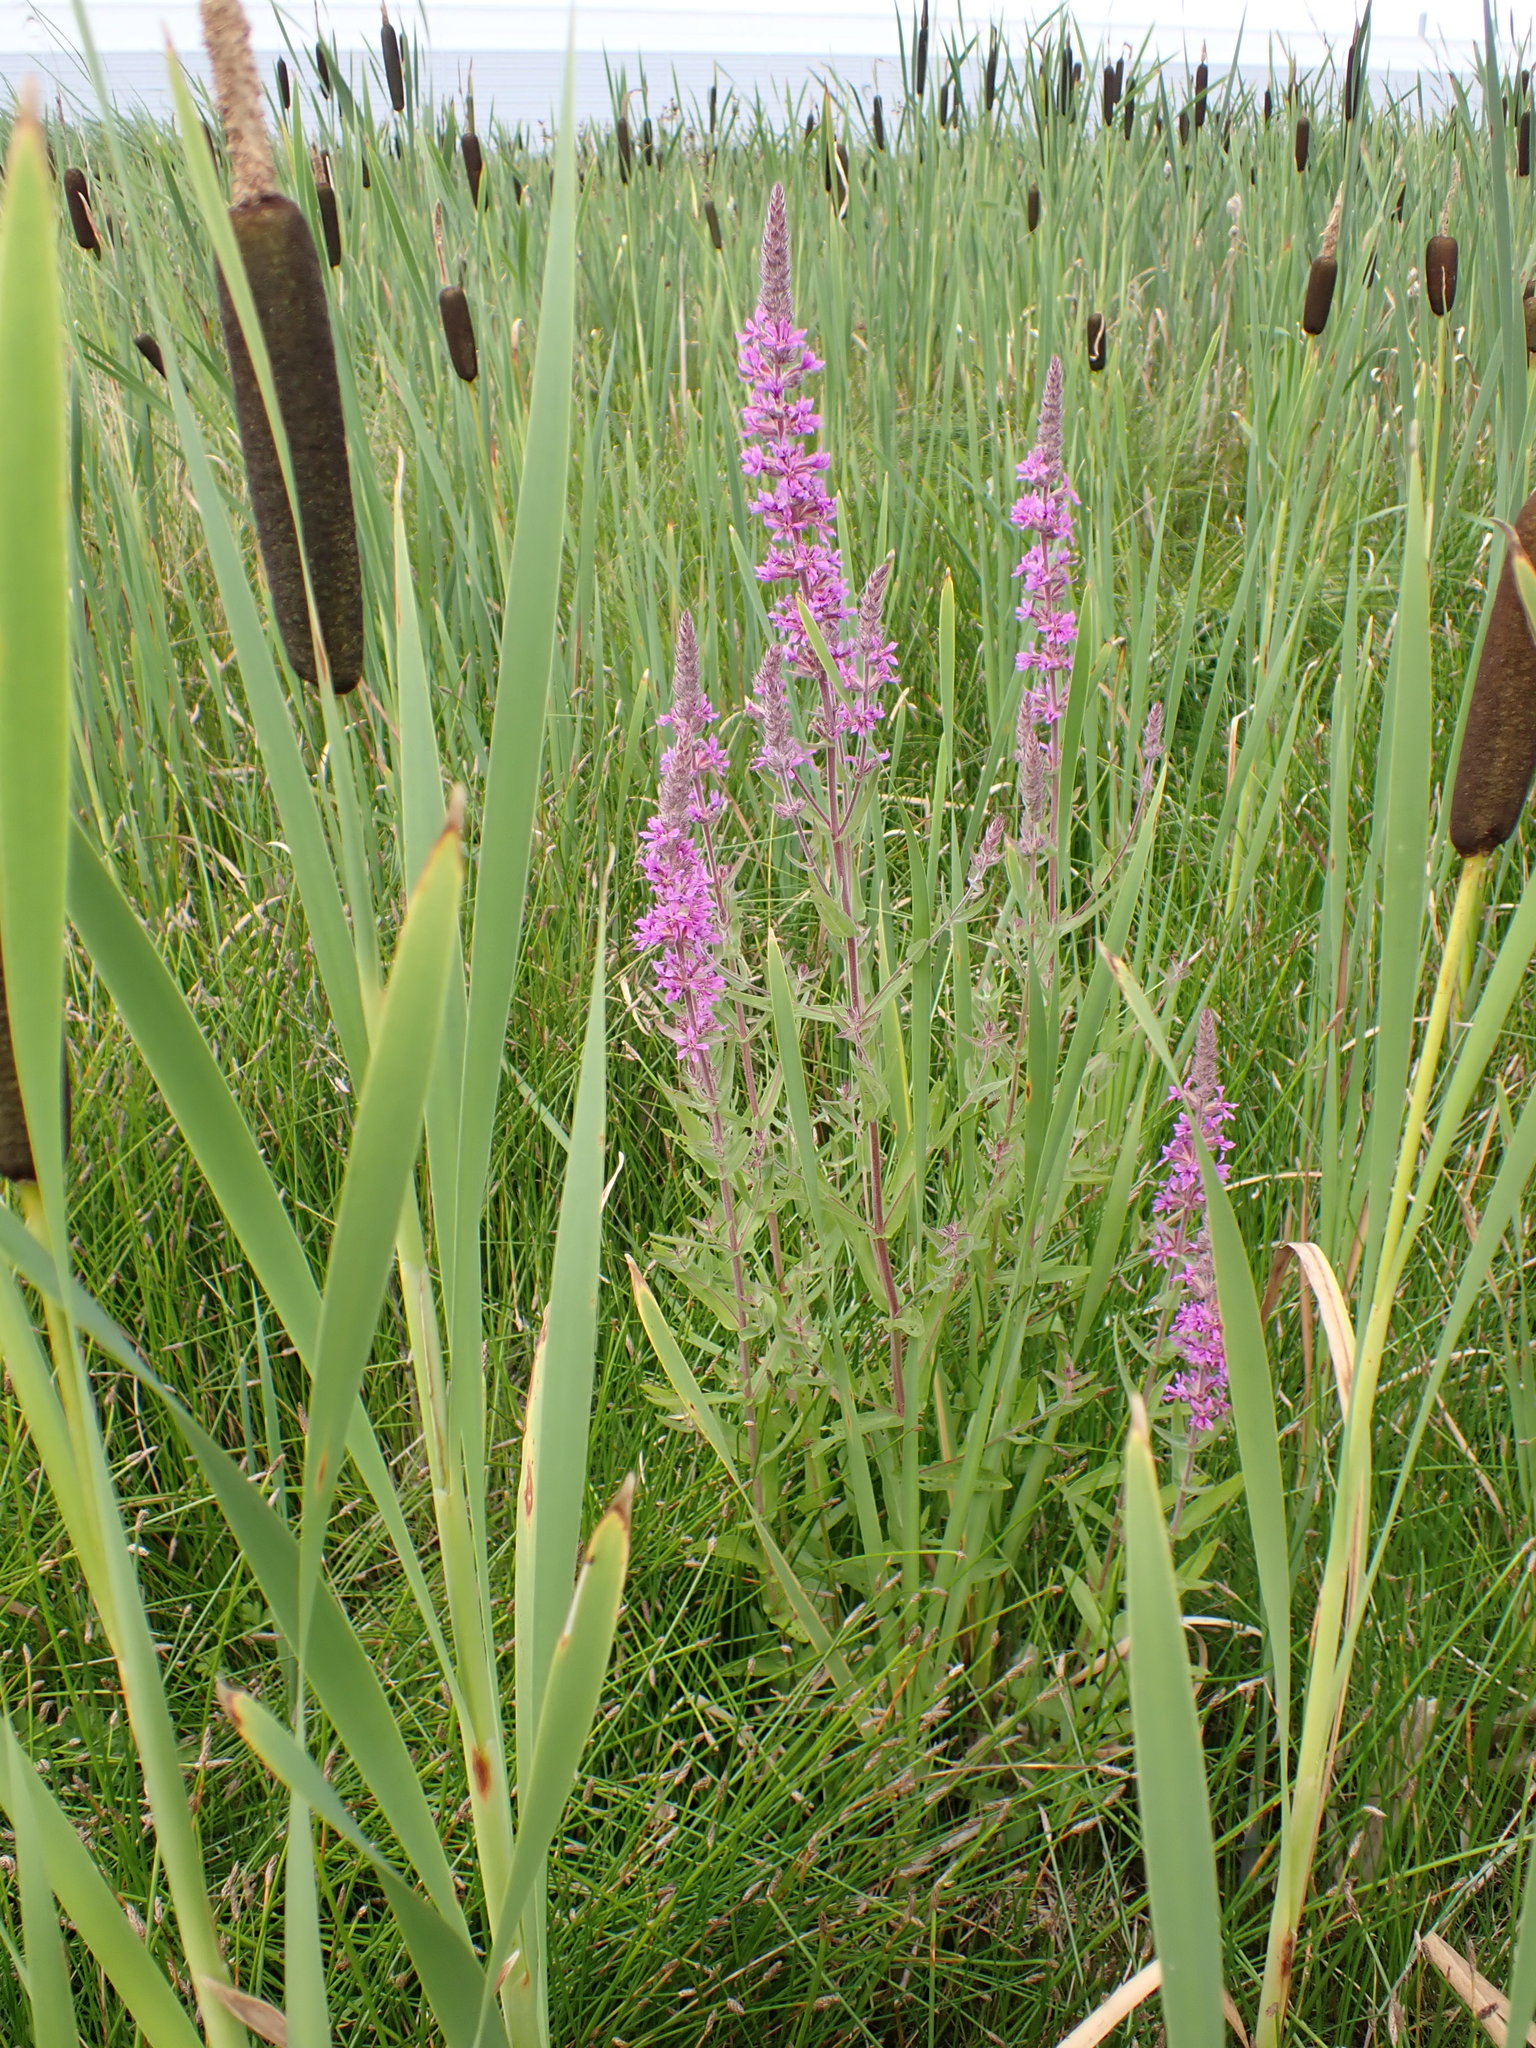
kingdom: Plantae
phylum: Tracheophyta
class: Magnoliopsida
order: Myrtales
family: Lythraceae
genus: Lythrum
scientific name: Lythrum salicaria
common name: Purple loosestrife
